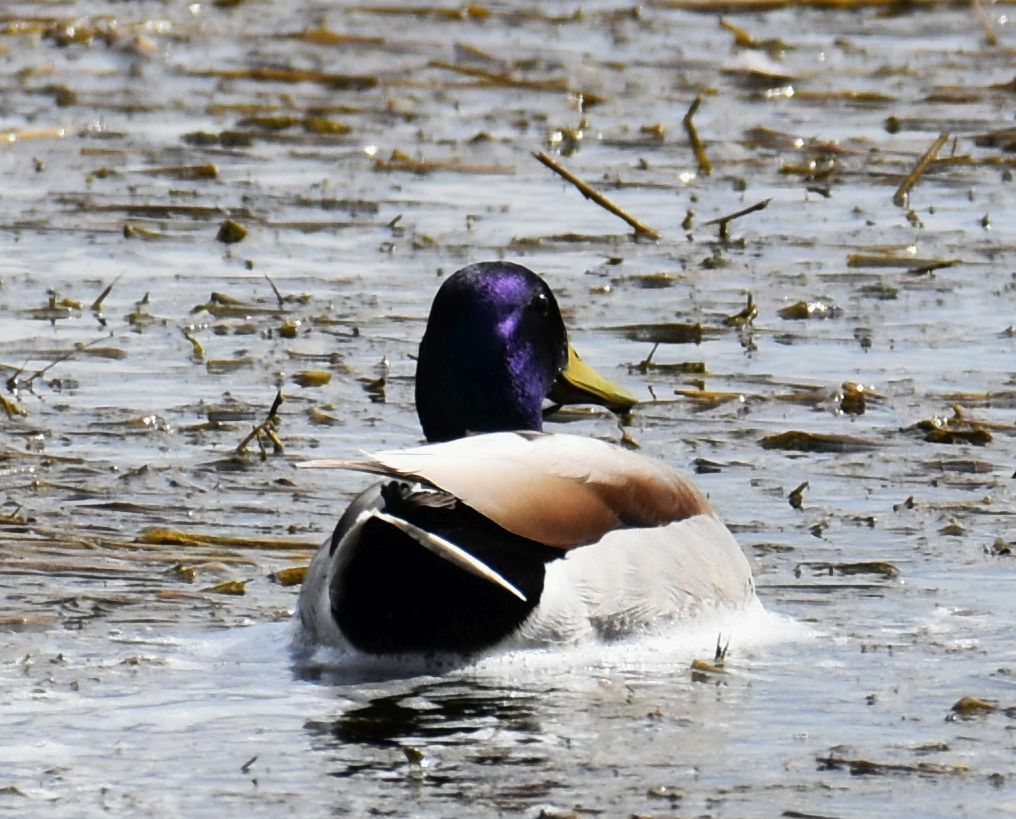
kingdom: Animalia
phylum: Chordata
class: Aves
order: Anseriformes
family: Anatidae
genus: Anas
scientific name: Anas platyrhynchos
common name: Mallard
